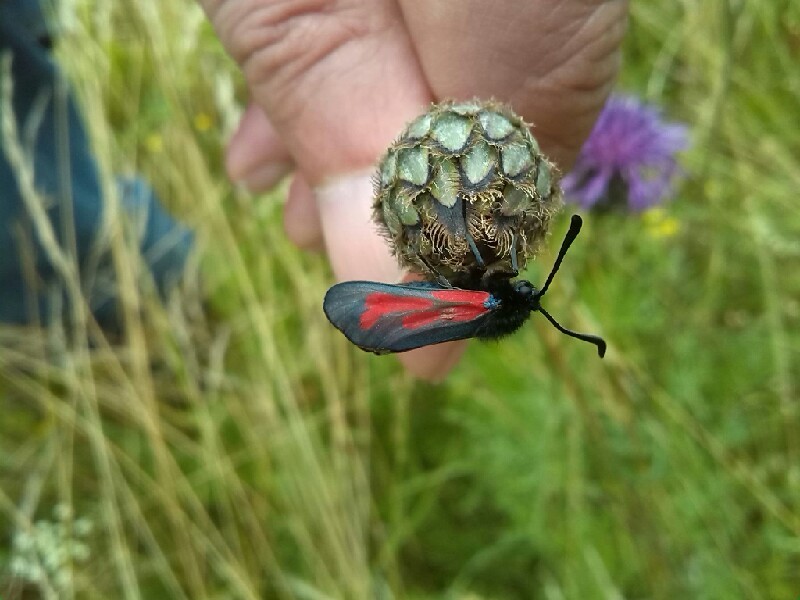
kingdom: Plantae
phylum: Tracheophyta
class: Magnoliopsida
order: Asterales
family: Asteraceae
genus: Centaurea
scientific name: Centaurea scabiosa
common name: Greater knapweed
